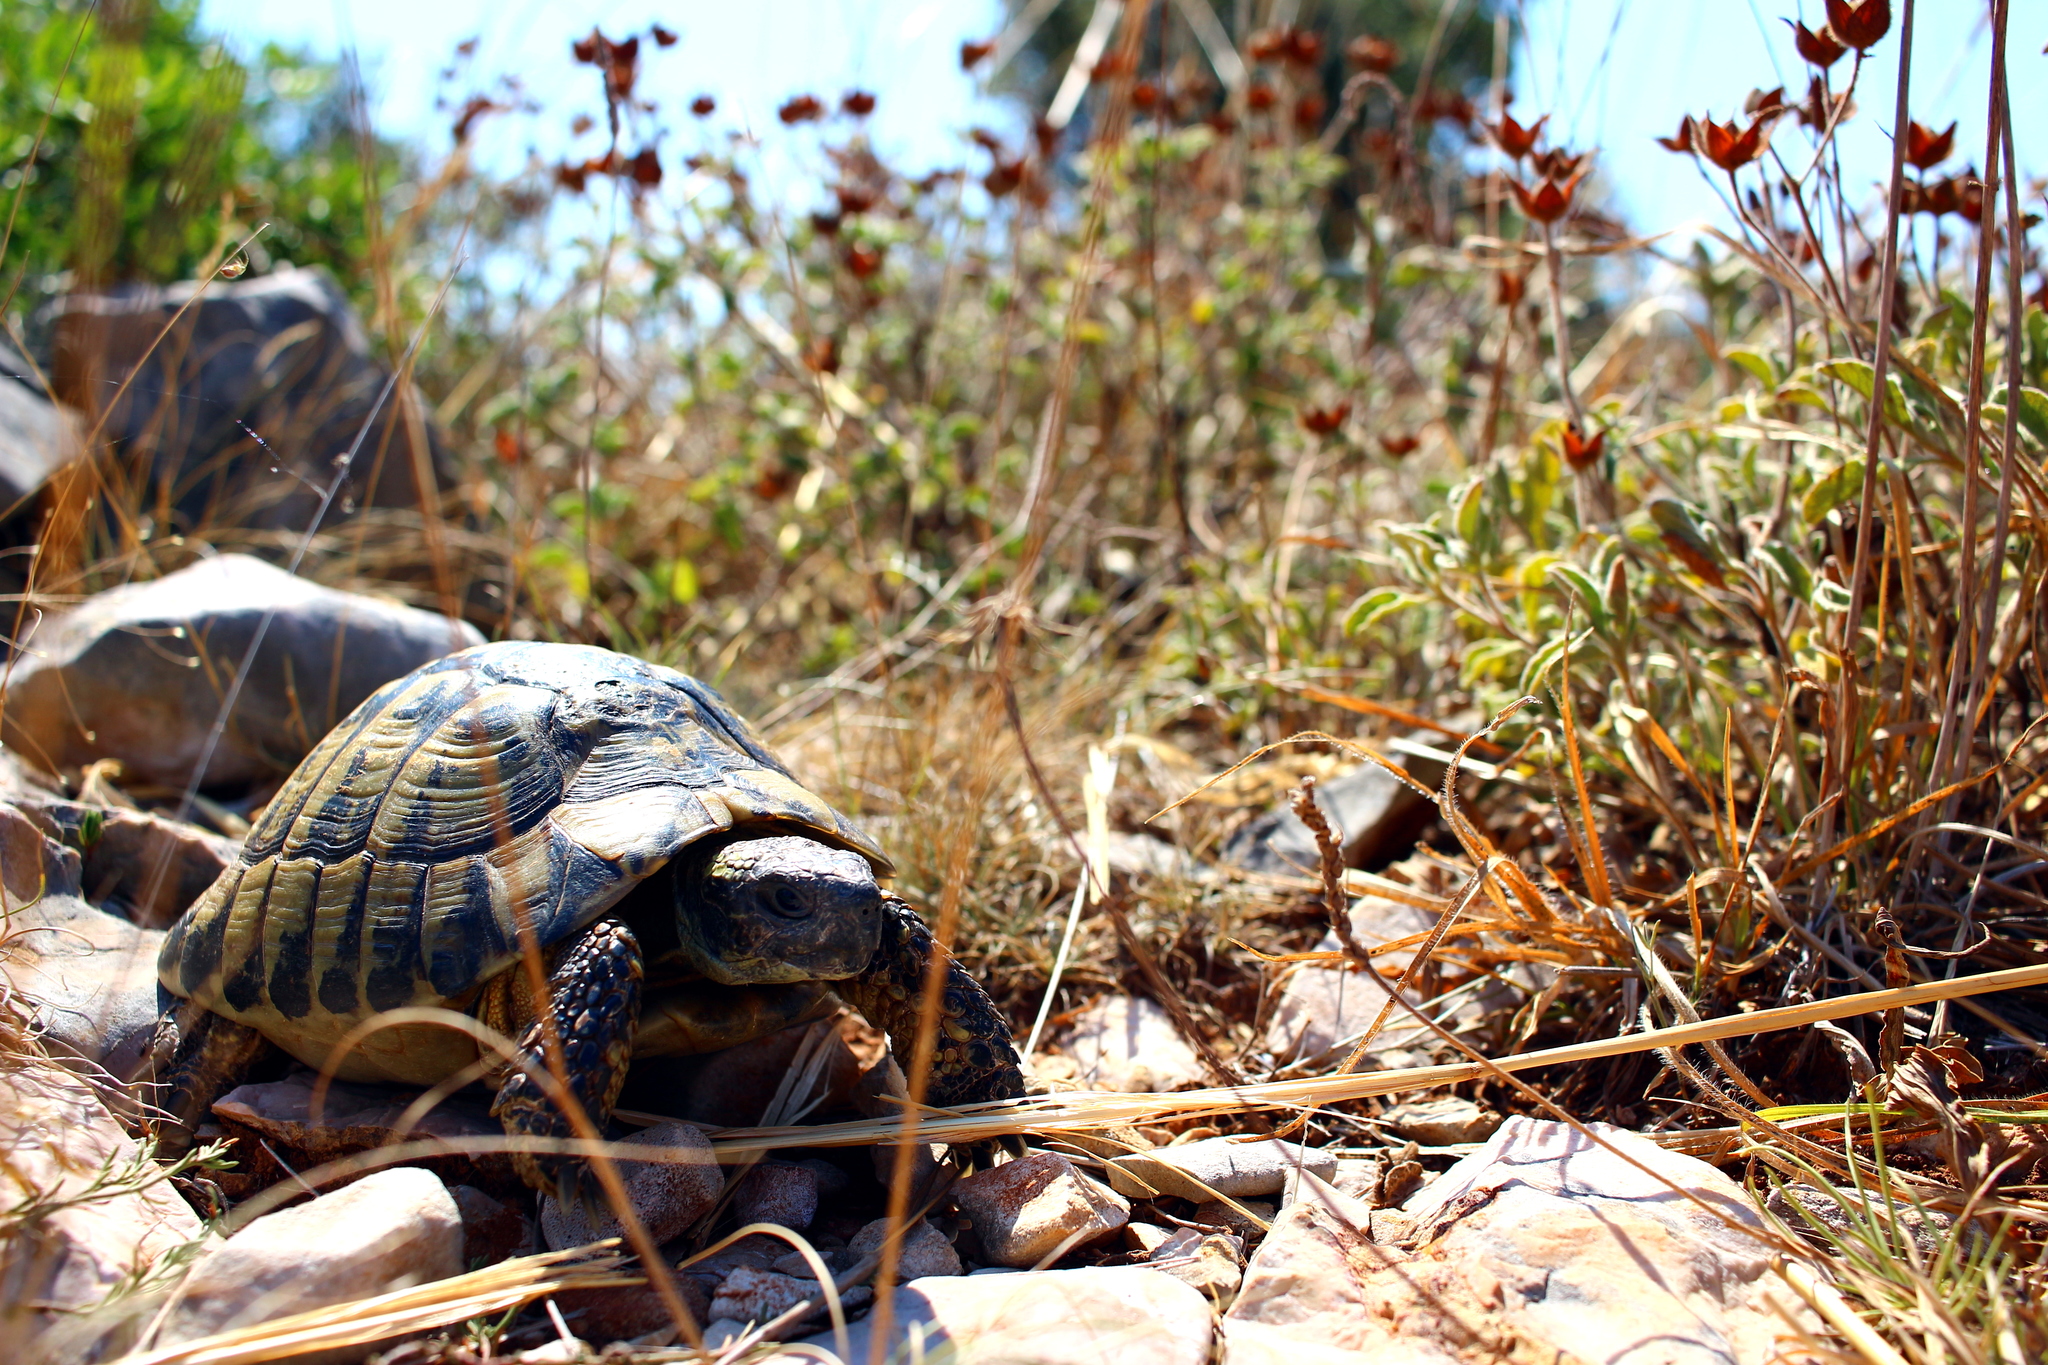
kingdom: Animalia
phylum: Chordata
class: Testudines
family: Testudinidae
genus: Testudo
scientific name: Testudo hermanni
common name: Hermann's tortoise
